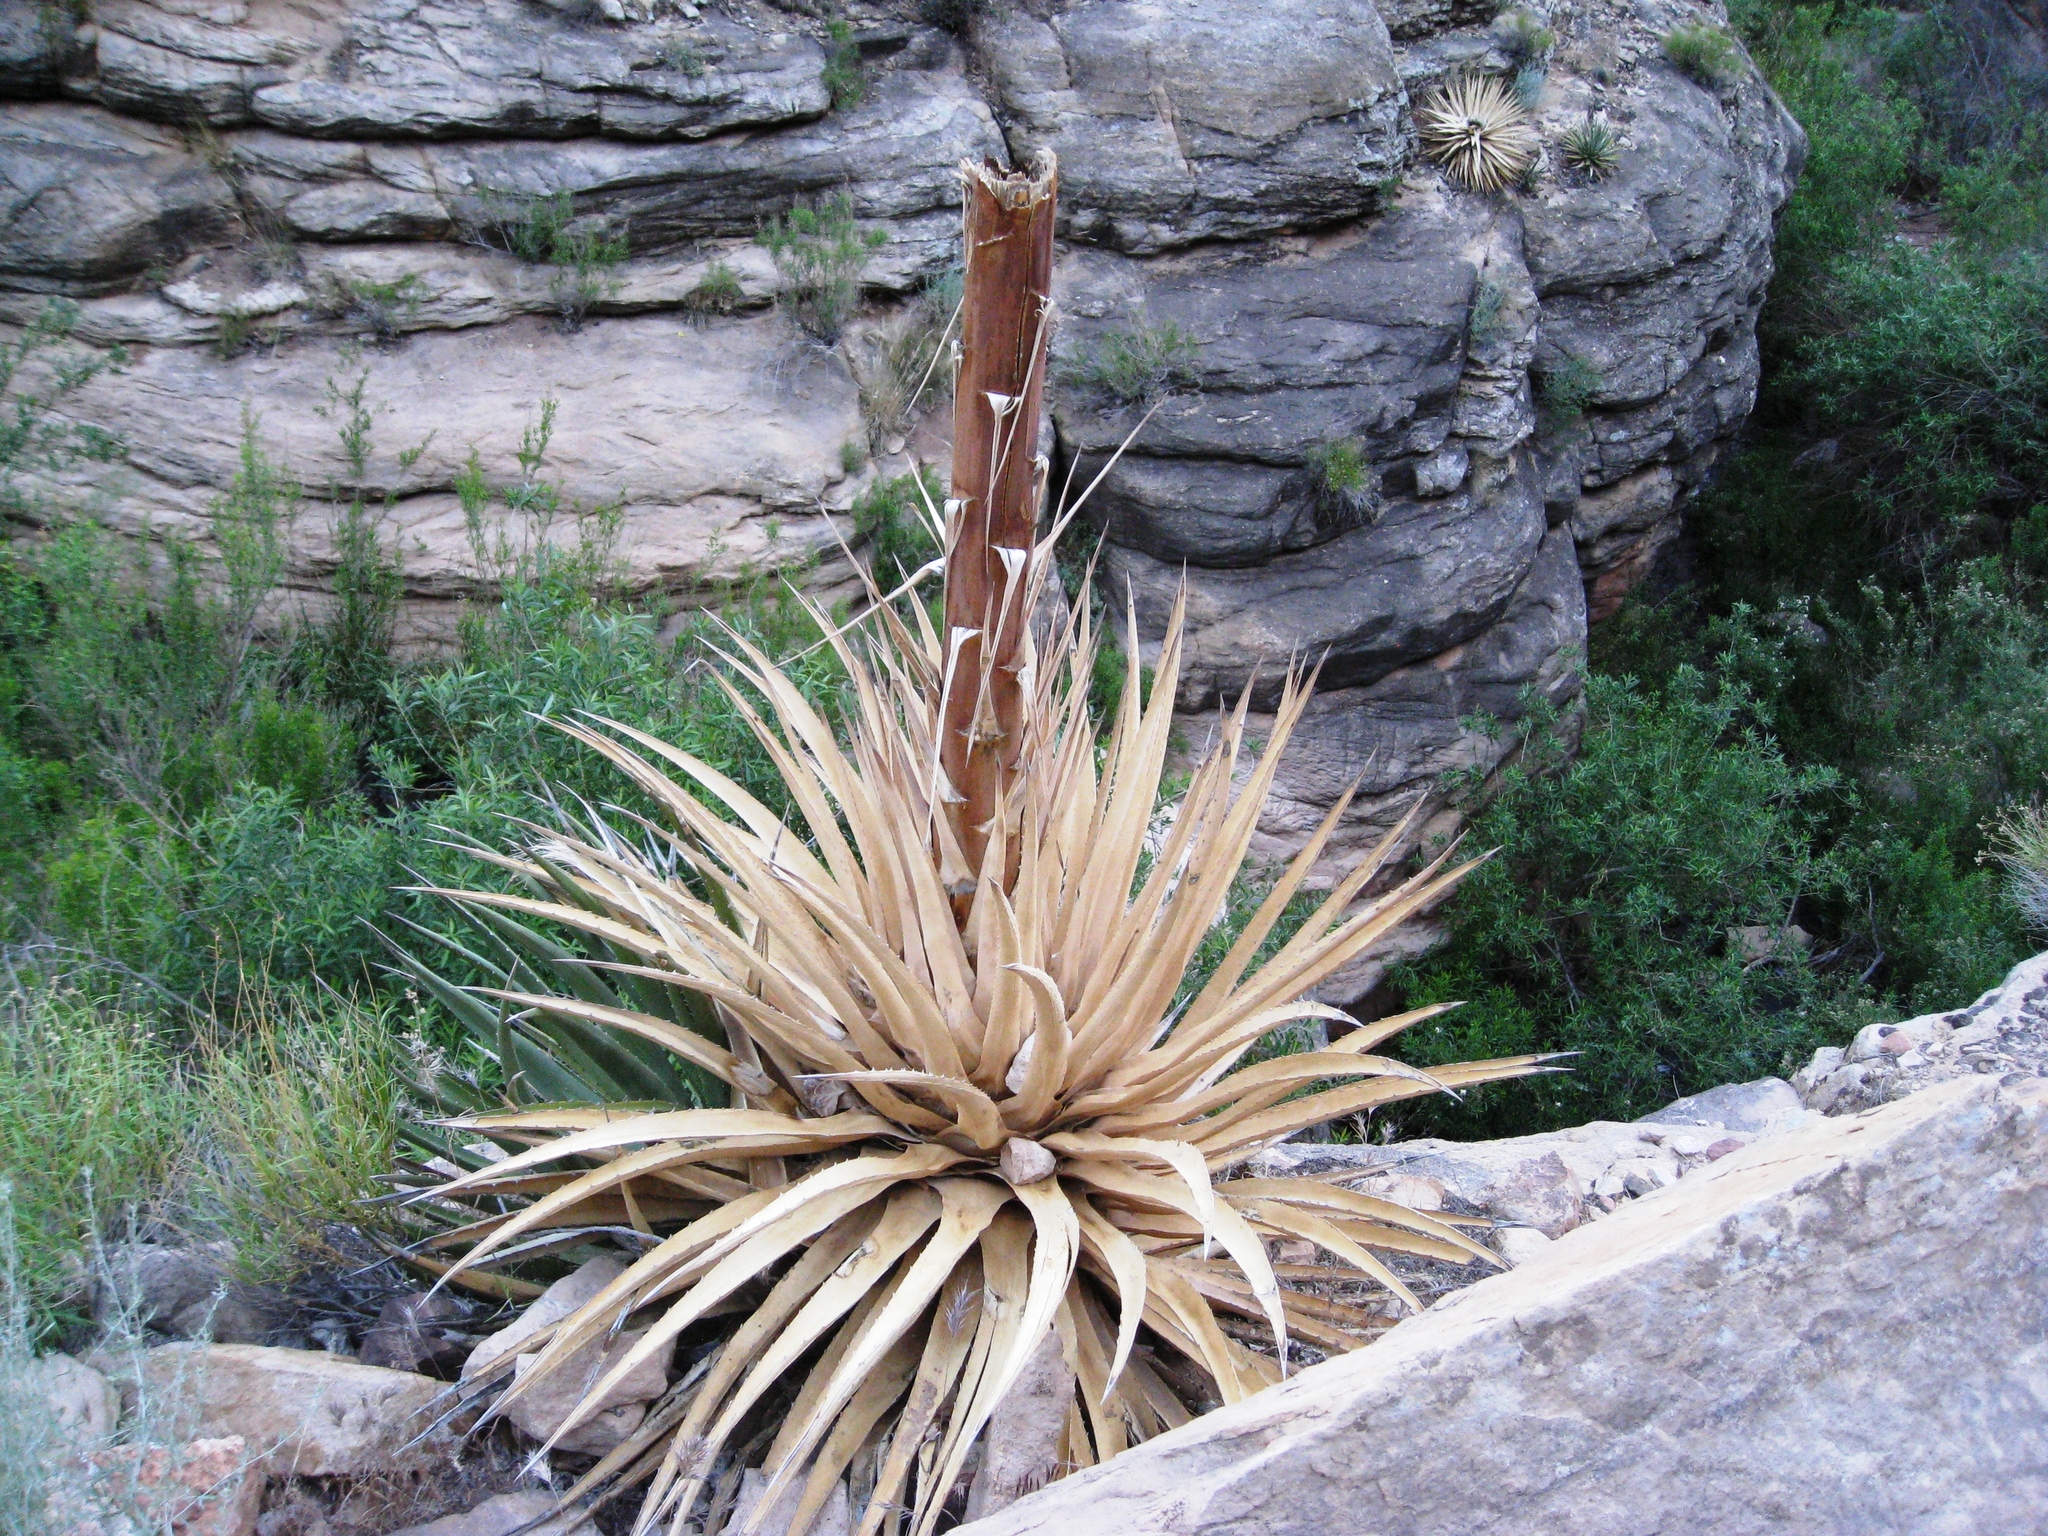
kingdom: Plantae
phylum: Tracheophyta
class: Liliopsida
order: Asparagales
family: Asparagaceae
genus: Agave
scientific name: Agave utahensis
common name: Utah agave
